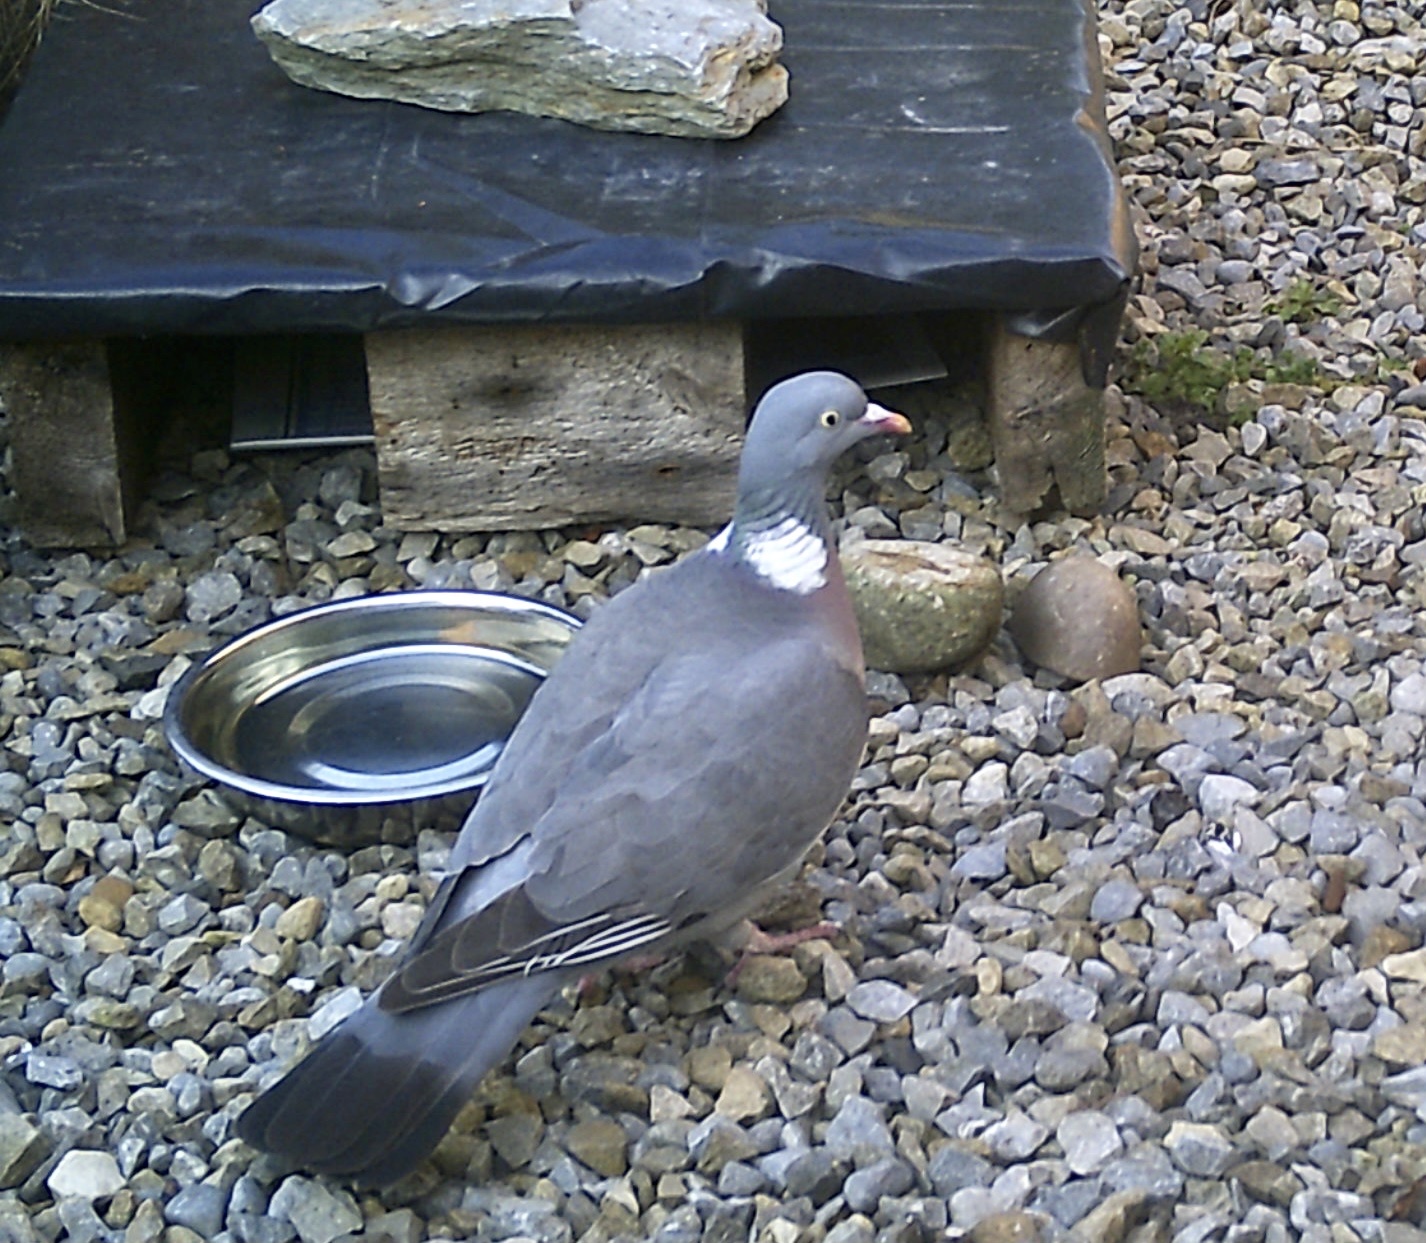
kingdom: Animalia
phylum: Chordata
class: Aves
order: Columbiformes
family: Columbidae
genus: Columba
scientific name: Columba palumbus
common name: Common wood pigeon
